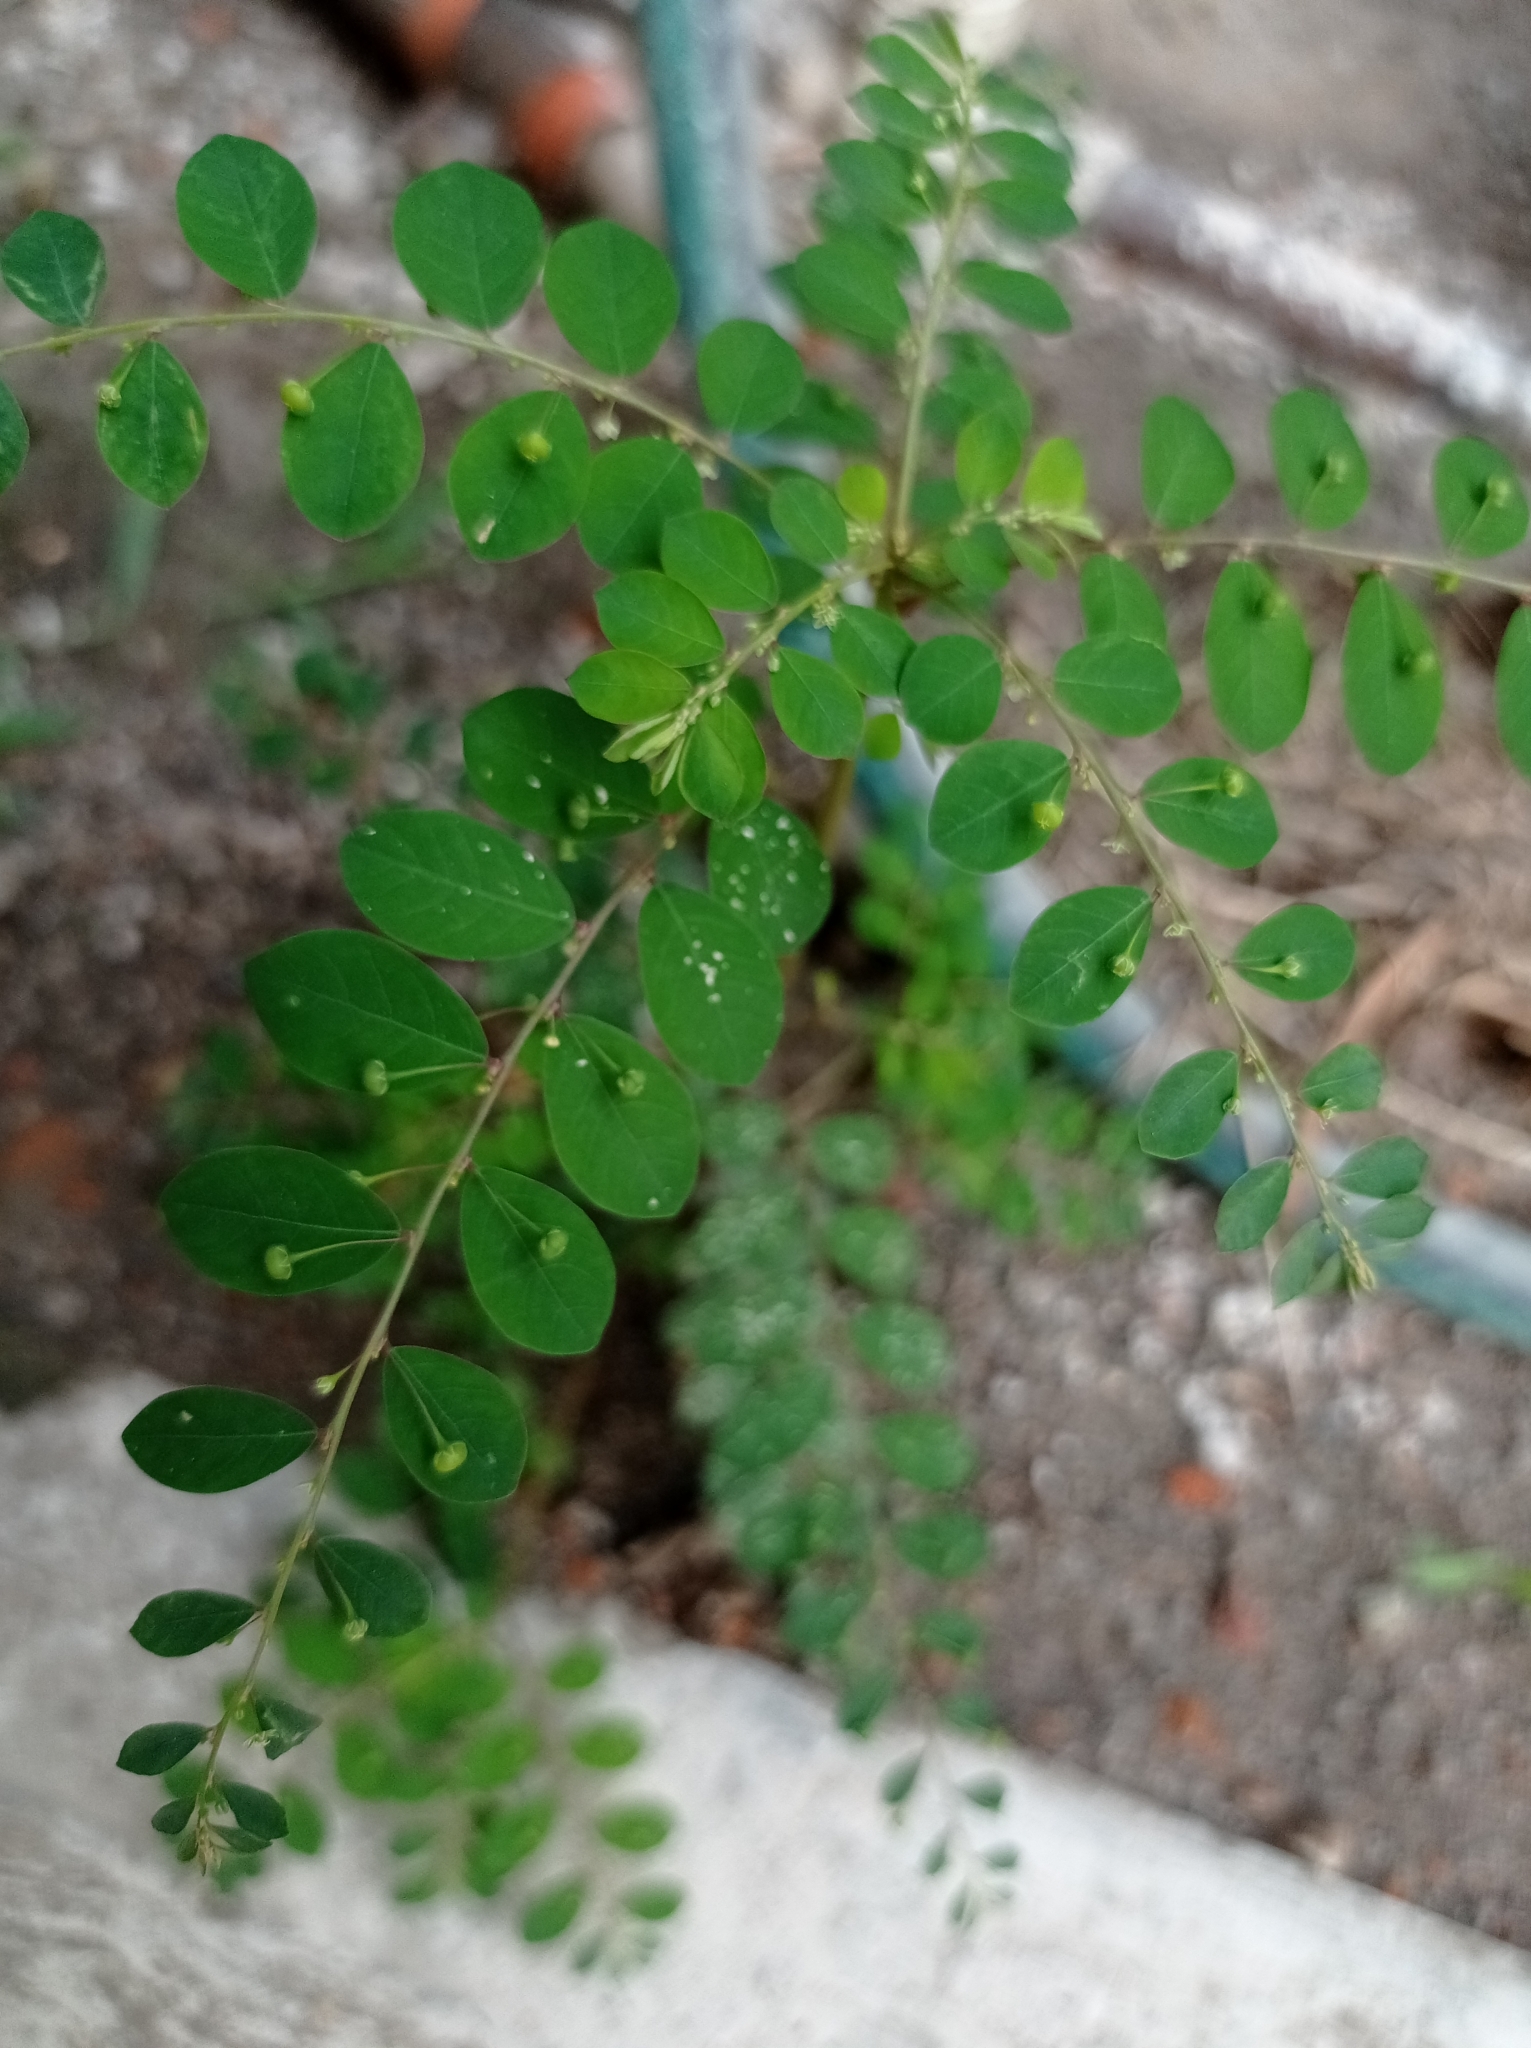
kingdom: Plantae
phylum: Tracheophyta
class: Magnoliopsida
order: Malpighiales
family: Phyllanthaceae
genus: Phyllanthus
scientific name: Phyllanthus tenellus
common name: Mascarene island leaf-flower
